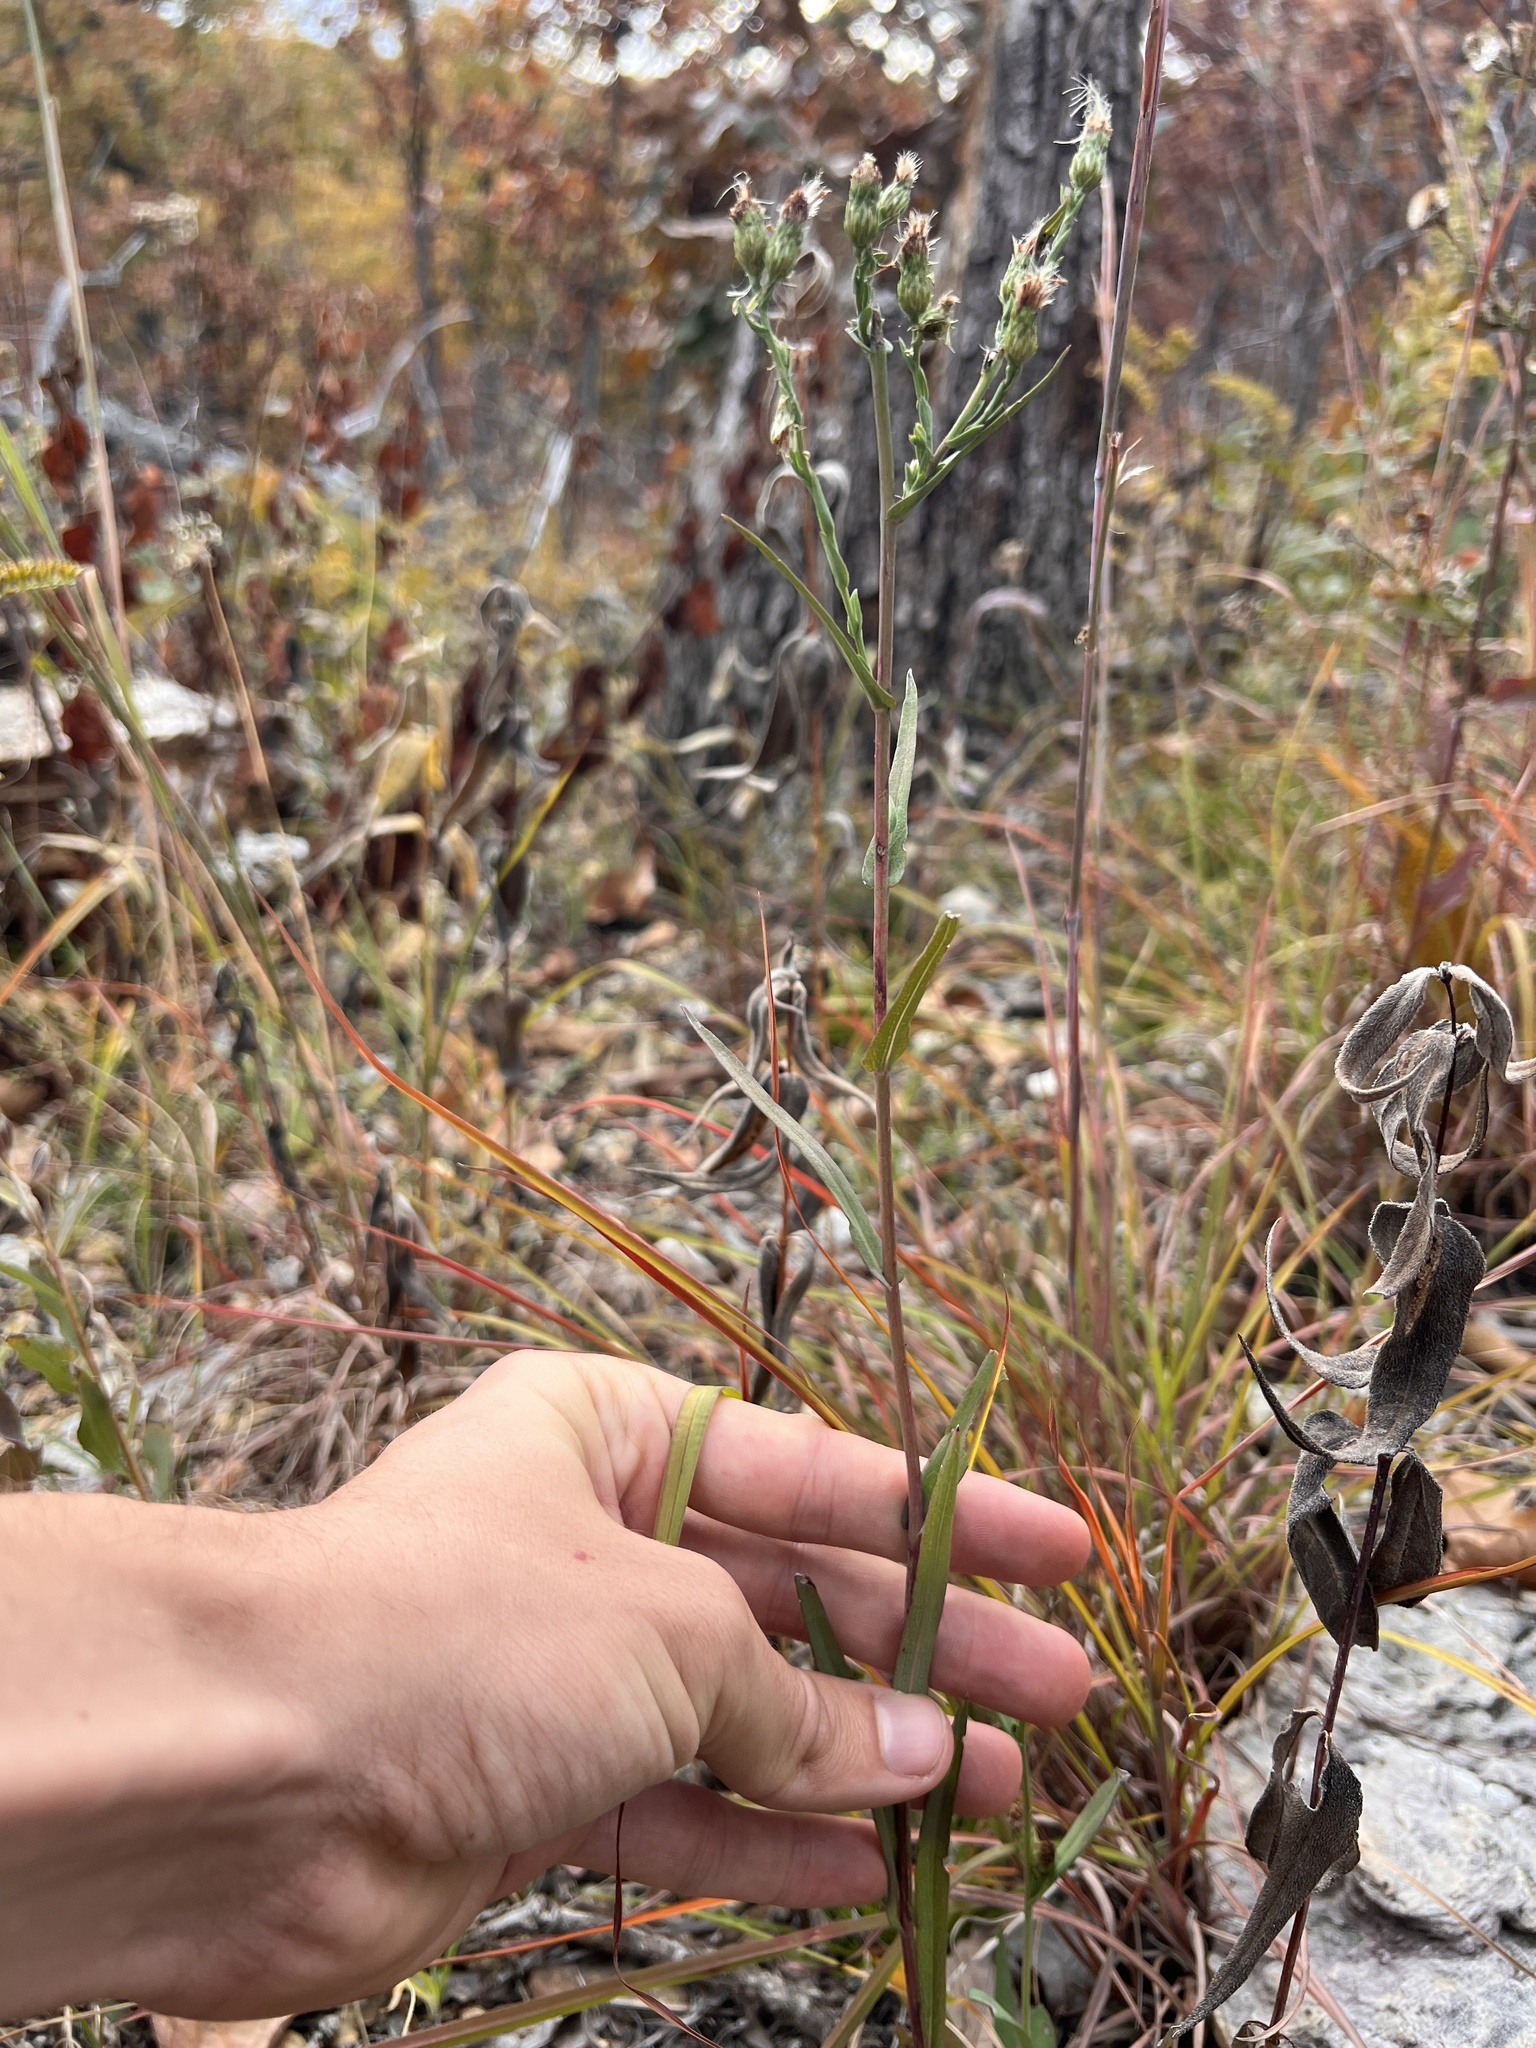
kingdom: Plantae
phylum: Tracheophyta
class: Magnoliopsida
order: Asterales
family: Asteraceae
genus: Symphyotrichum
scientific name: Symphyotrichum laeve
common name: Glaucous aster
